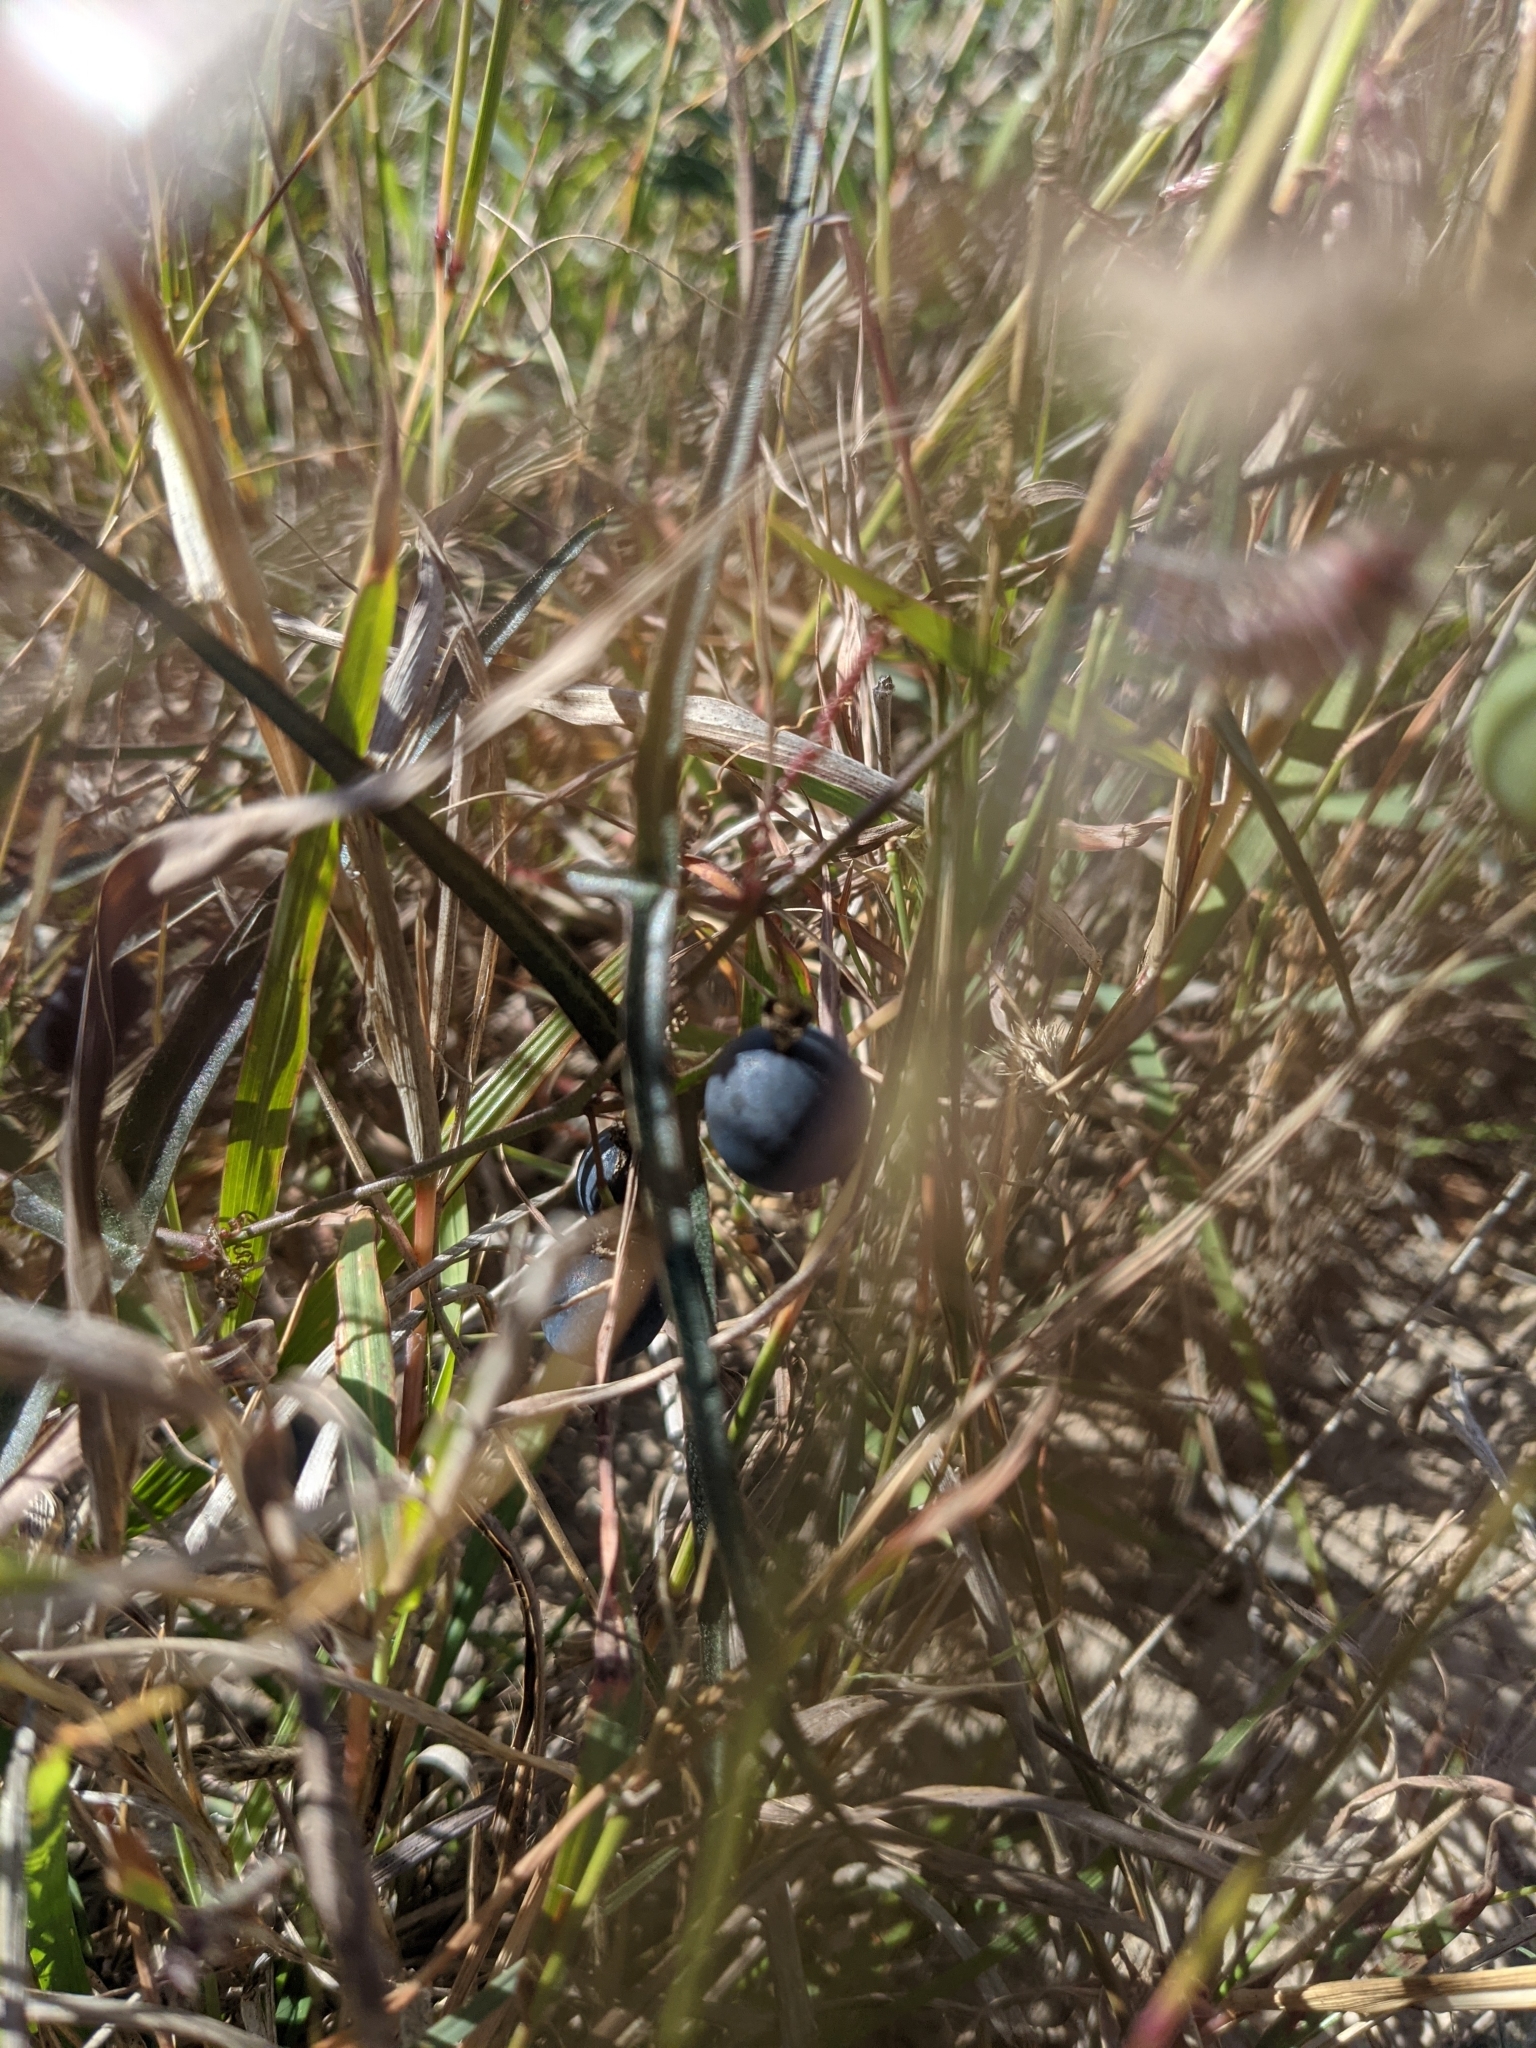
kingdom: Plantae
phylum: Tracheophyta
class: Magnoliopsida
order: Malpighiales
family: Passifloraceae
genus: Passiflora
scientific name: Passiflora tenuiloba
